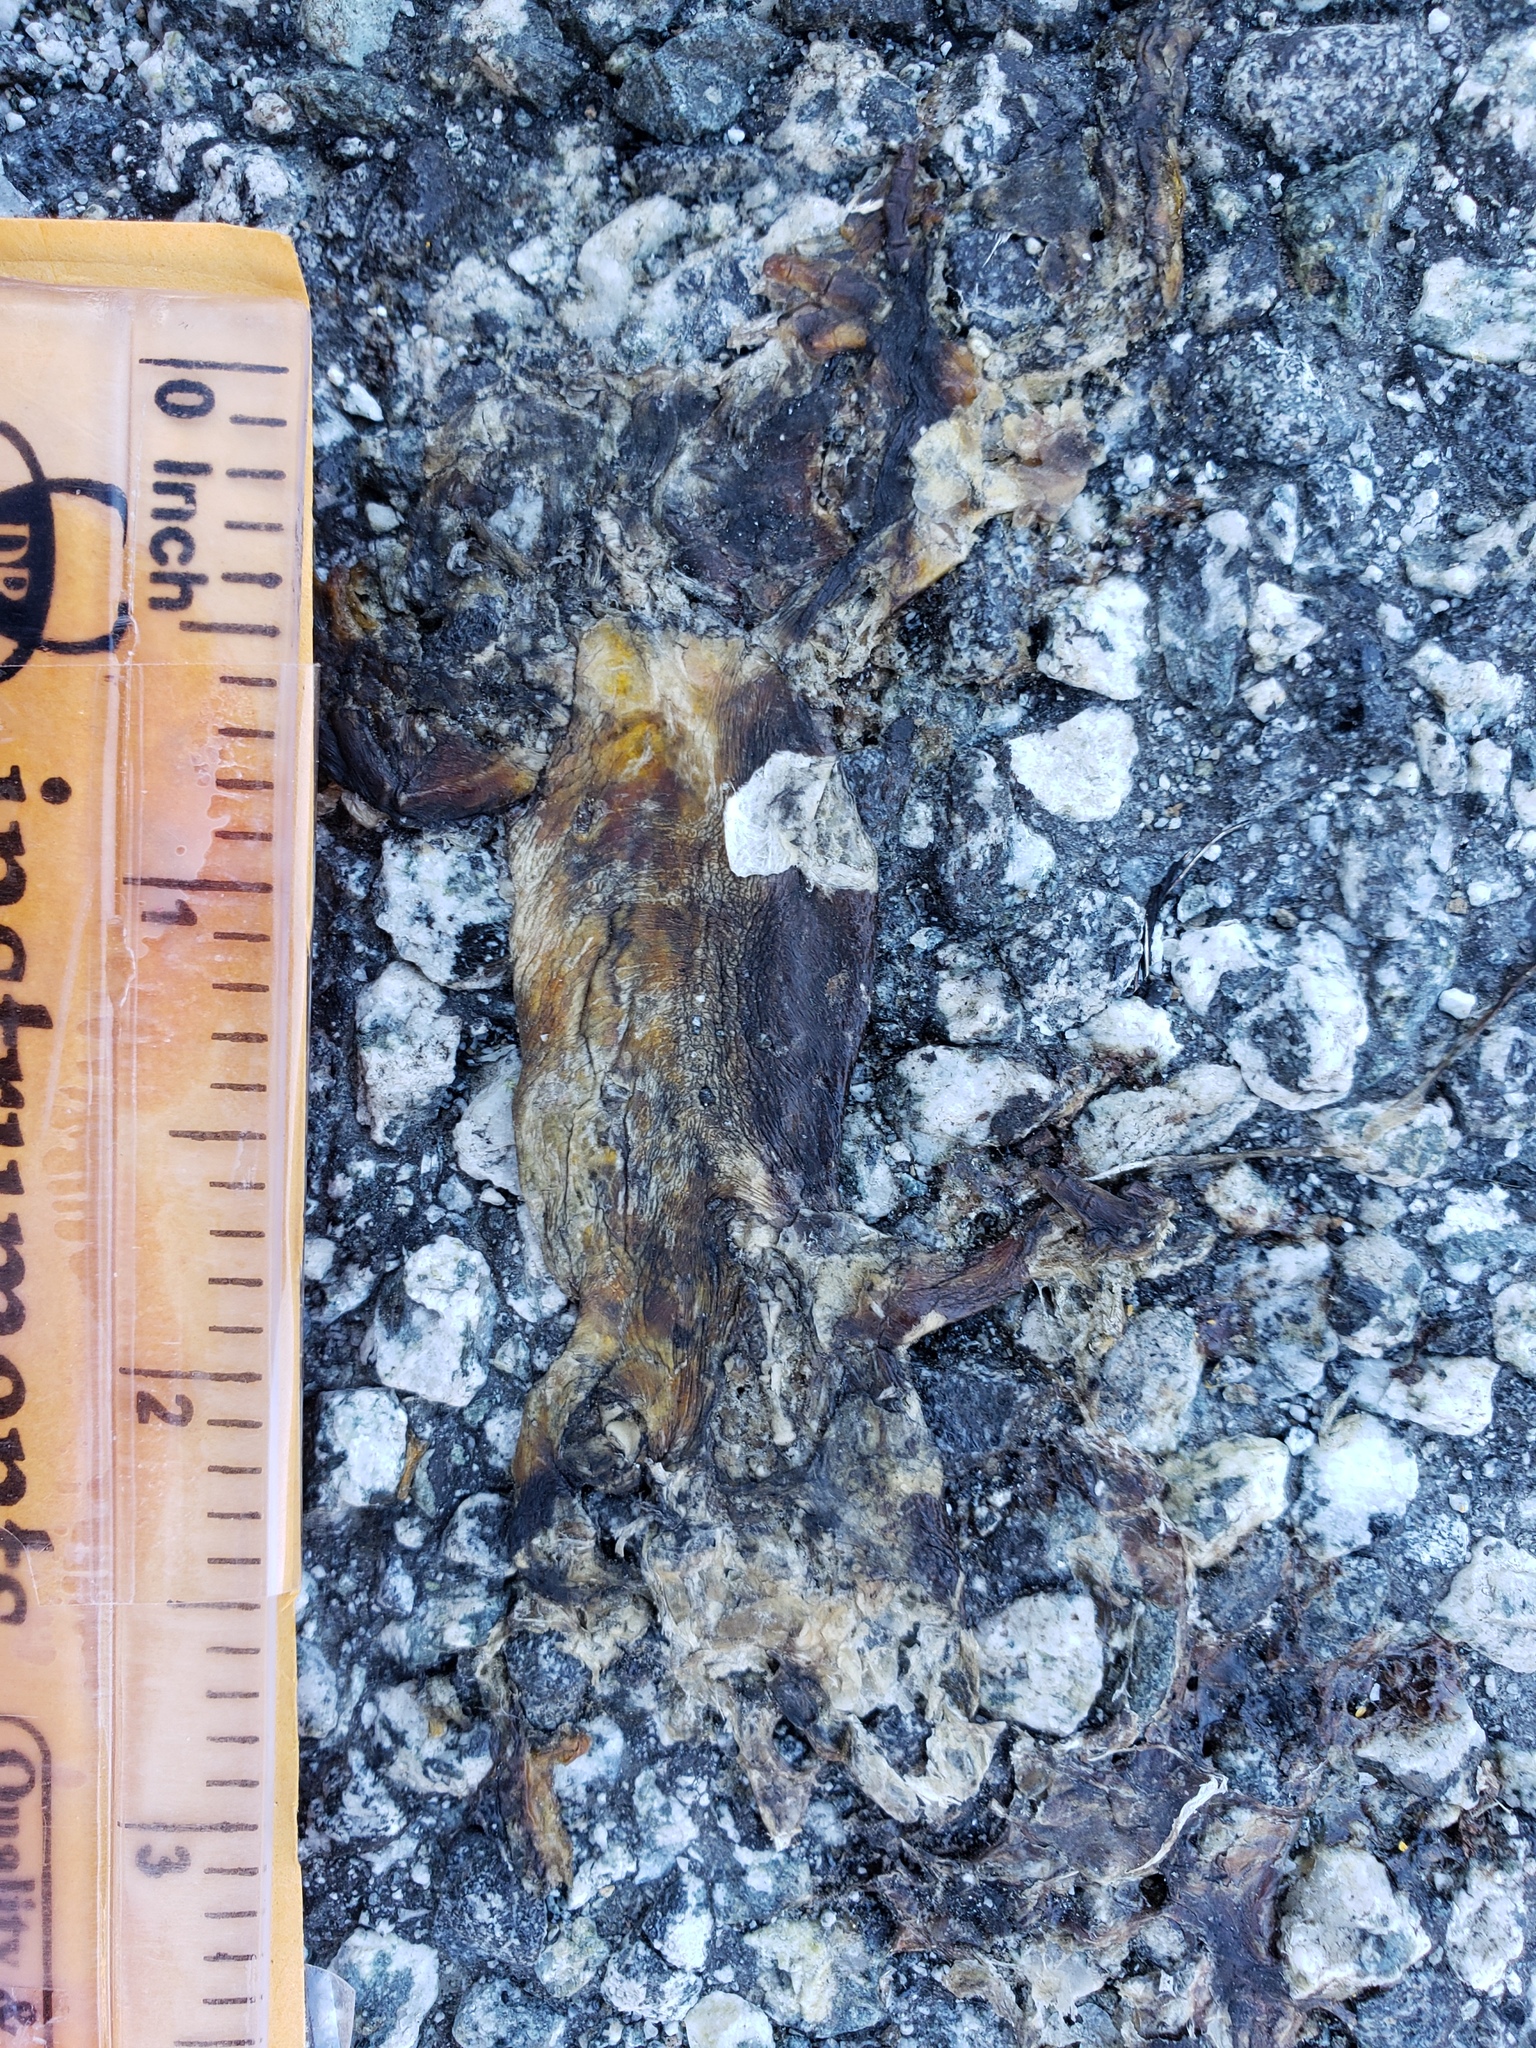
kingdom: Animalia
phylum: Chordata
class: Amphibia
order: Caudata
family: Salamandridae
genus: Taricha
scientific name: Taricha
